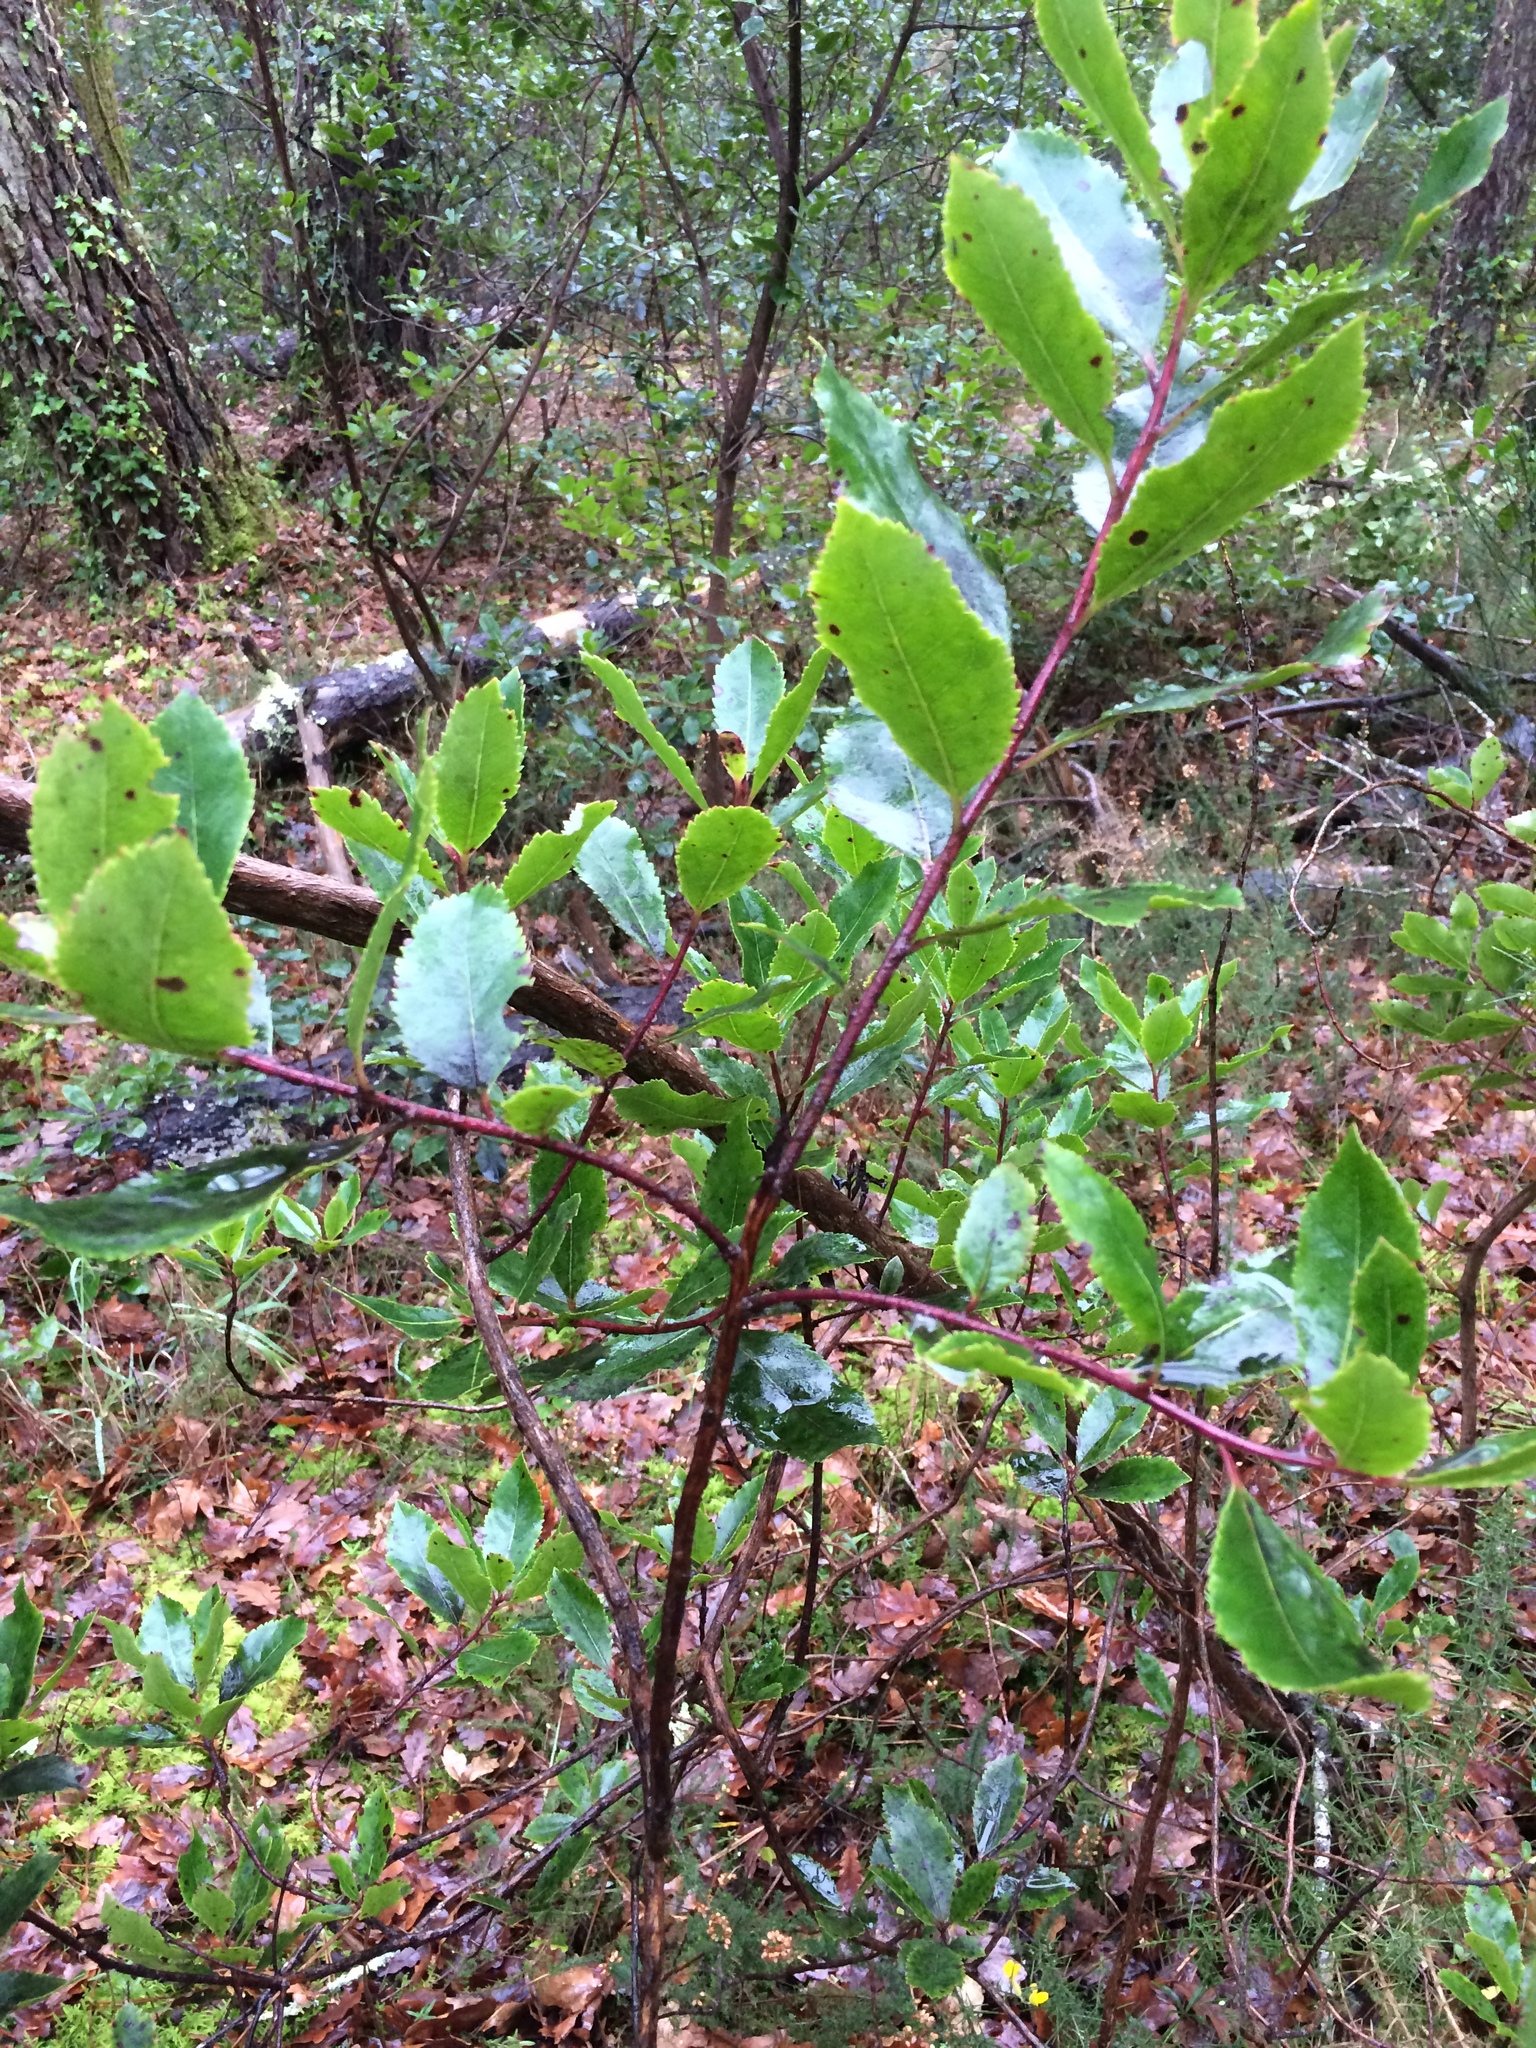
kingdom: Plantae
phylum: Tracheophyta
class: Magnoliopsida
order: Ericales
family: Ericaceae
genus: Arbutus
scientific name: Arbutus unedo
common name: Strawberry-tree
